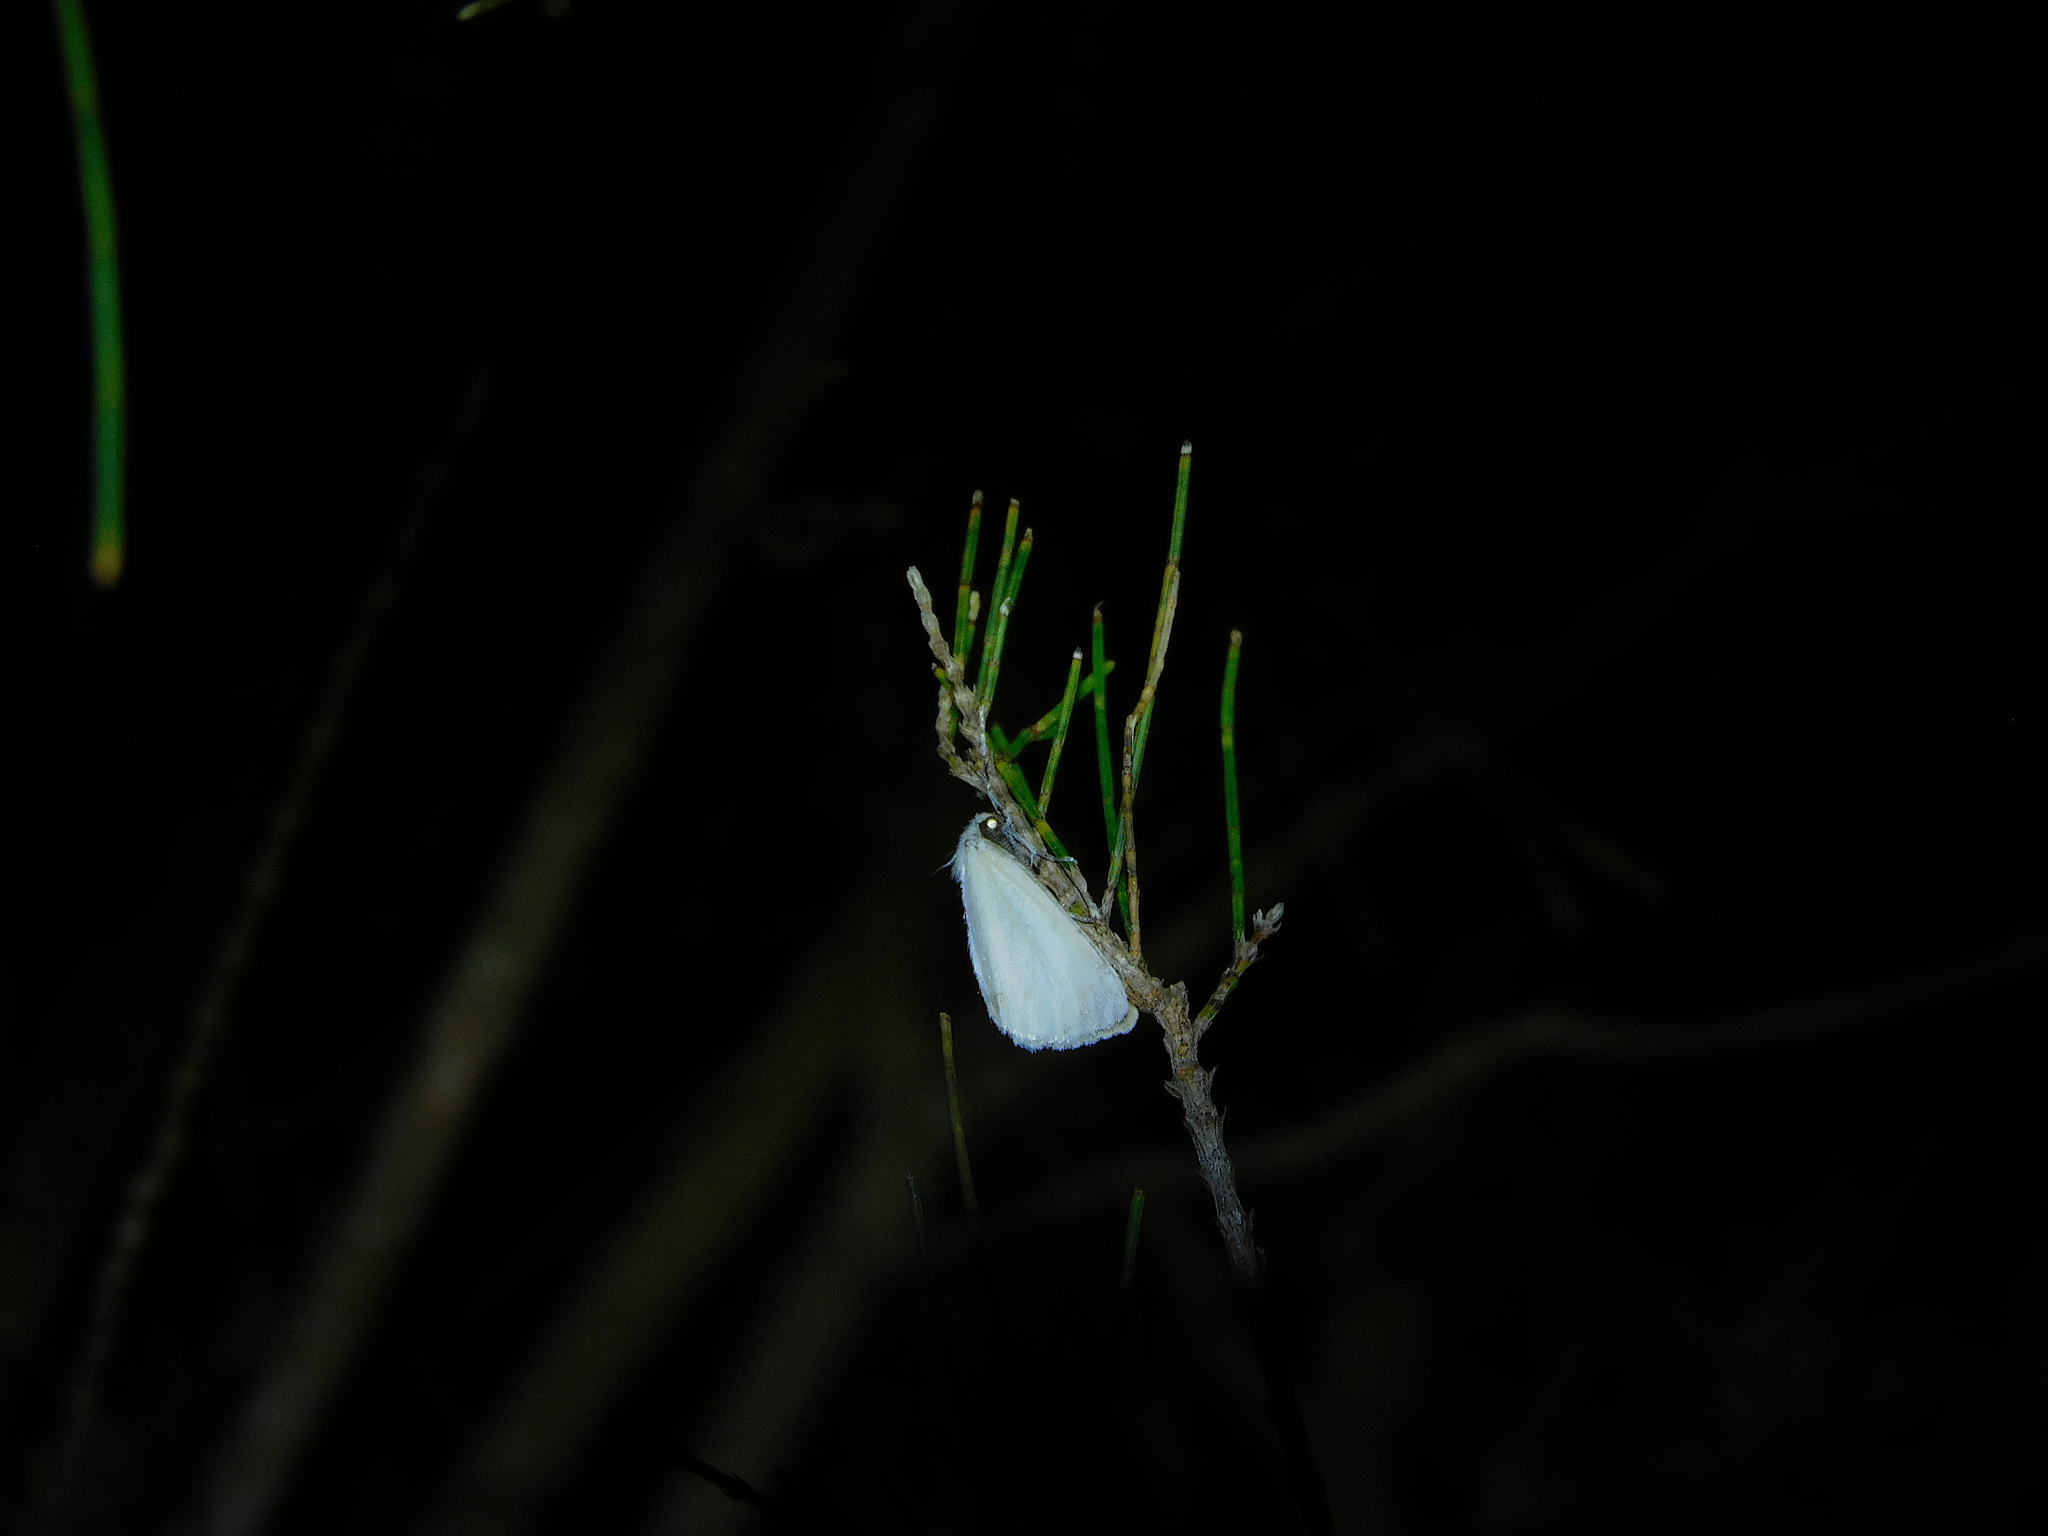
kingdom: Animalia
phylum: Arthropoda
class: Insecta
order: Lepidoptera
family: Erebidae
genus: Acyphas
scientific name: Acyphas semiochrea
